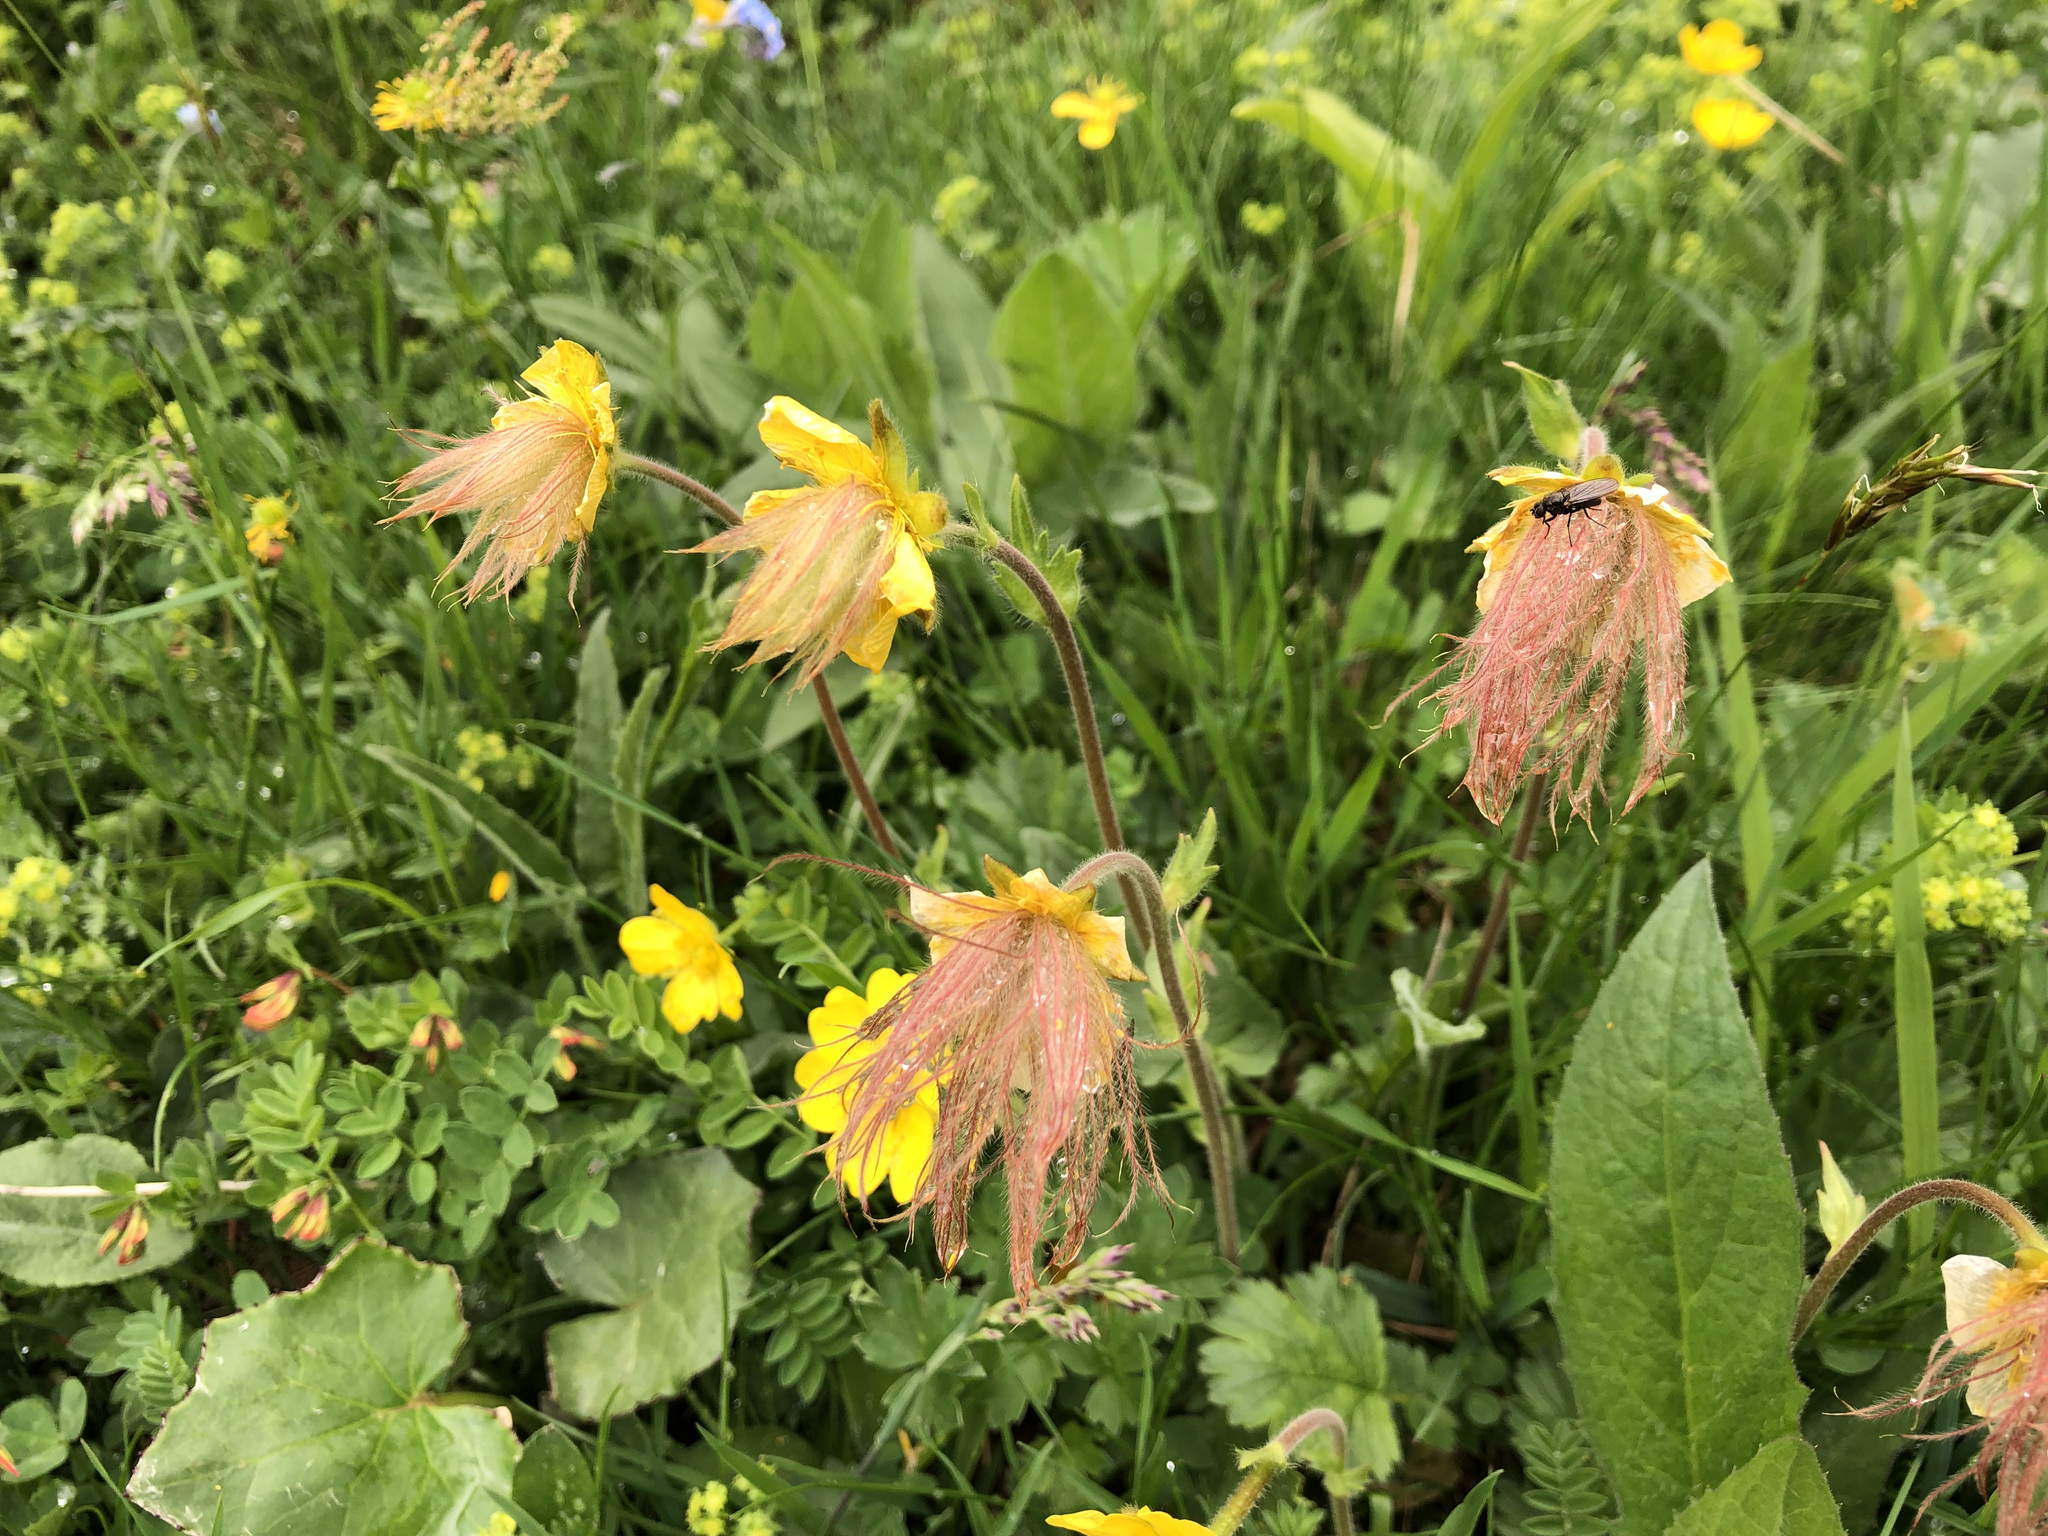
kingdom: Plantae
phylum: Tracheophyta
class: Magnoliopsida
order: Rosales
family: Rosaceae
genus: Geum
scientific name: Geum montanum
